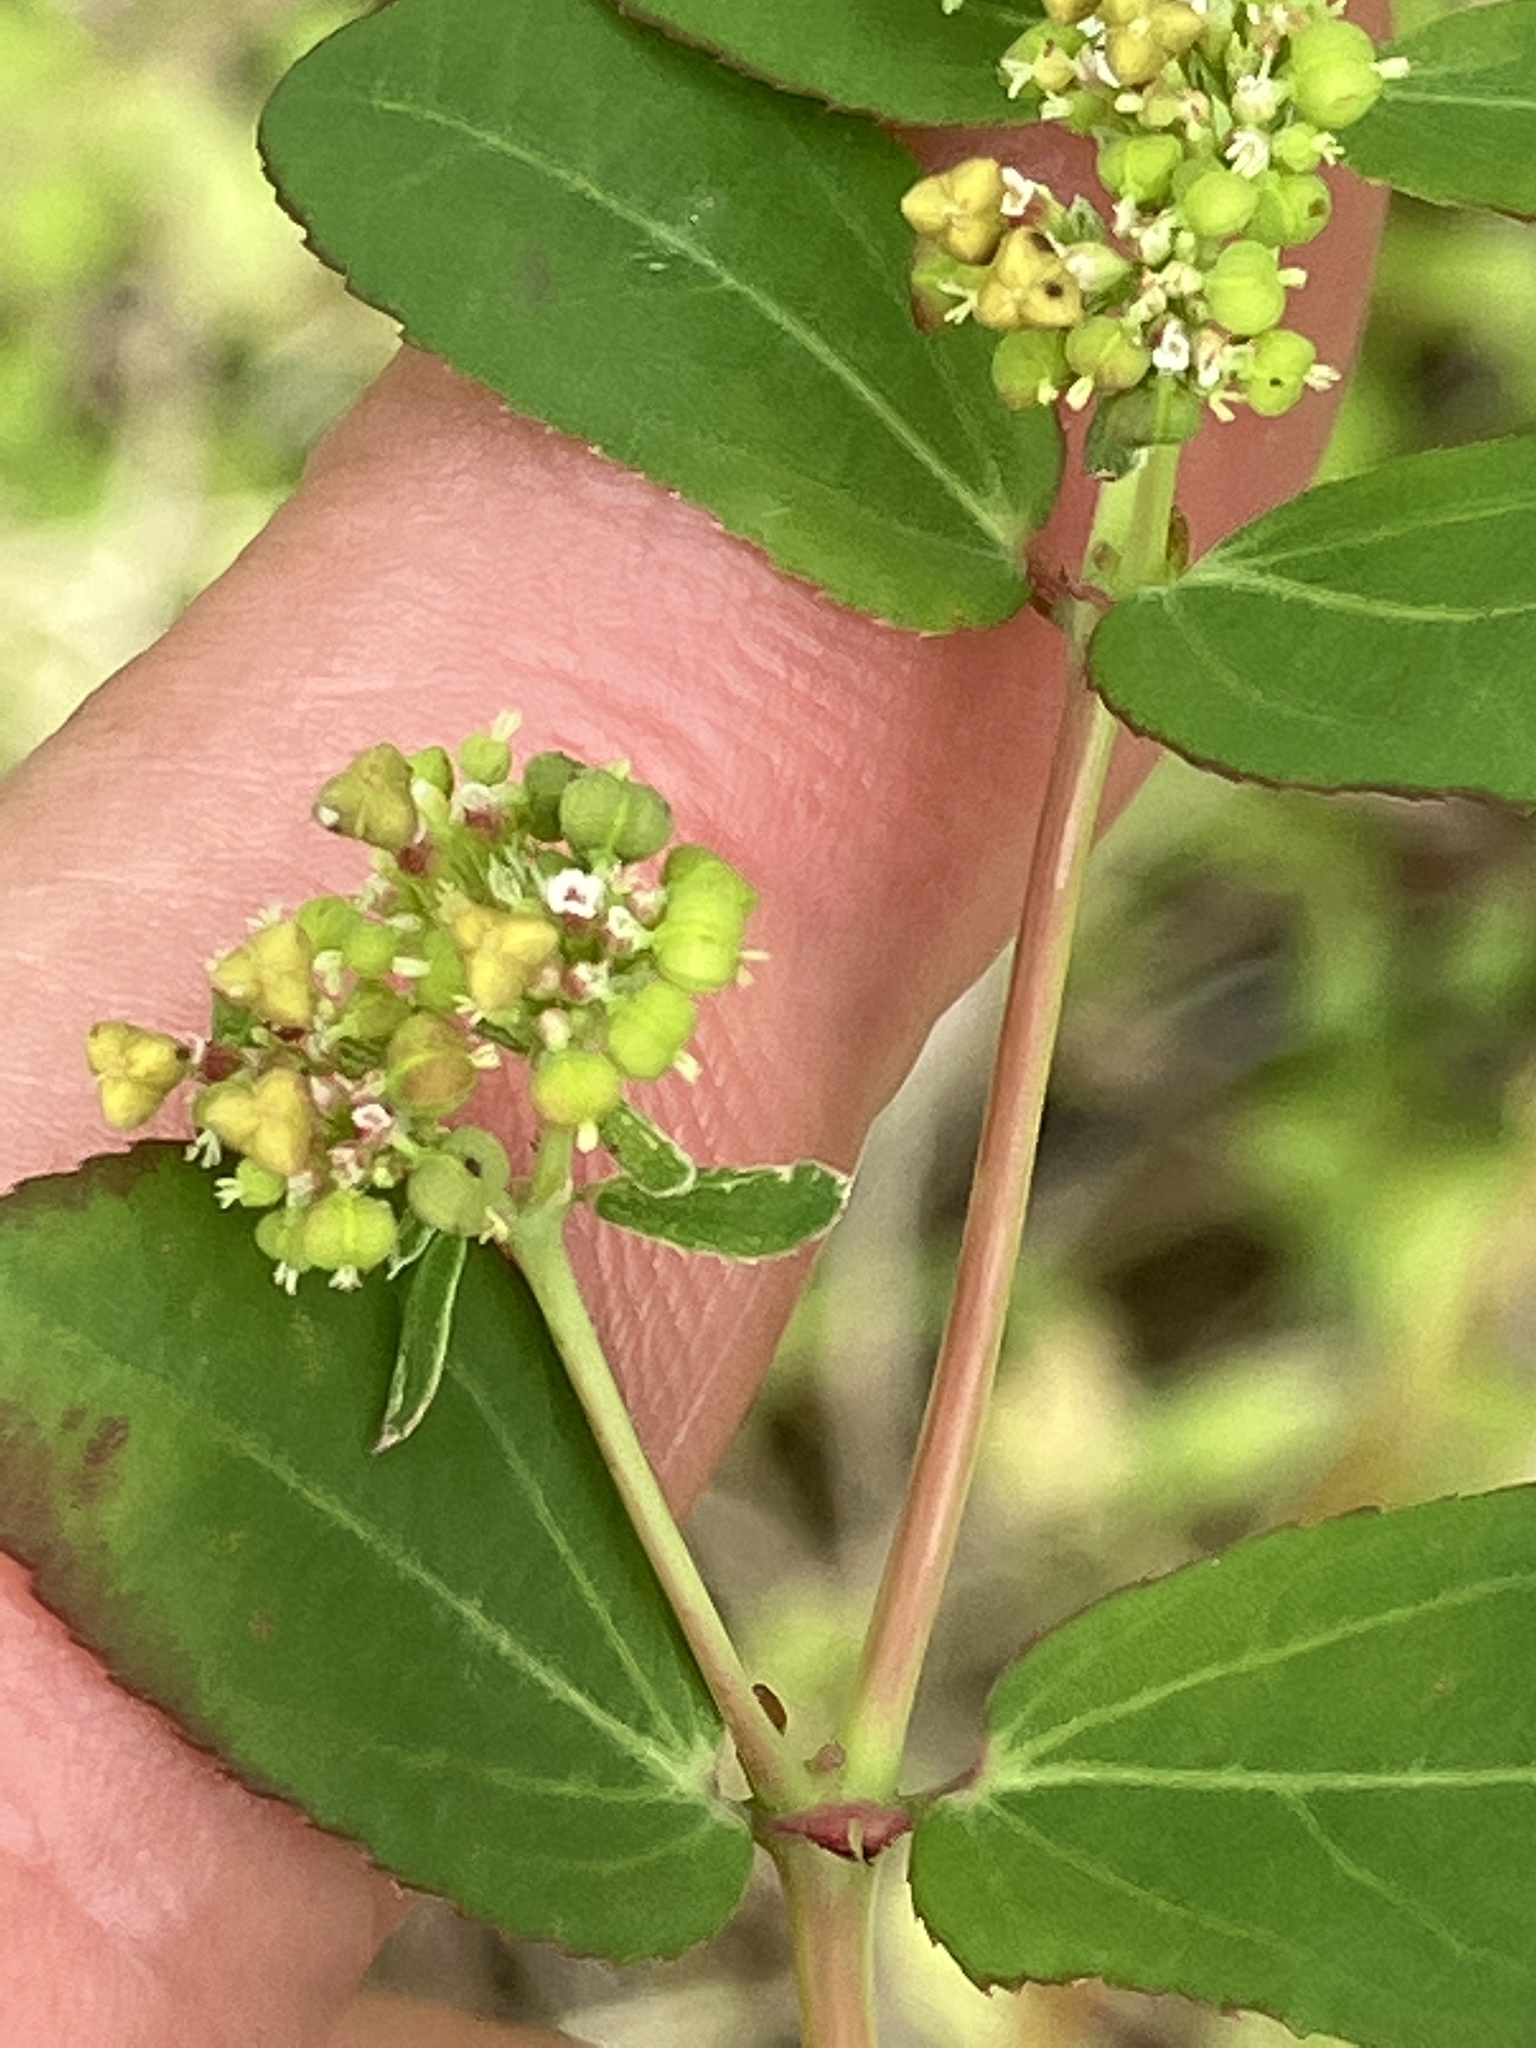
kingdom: Plantae
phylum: Tracheophyta
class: Magnoliopsida
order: Malpighiales
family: Euphorbiaceae
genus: Euphorbia
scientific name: Euphorbia hypericifolia
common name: Graceful sandmat
